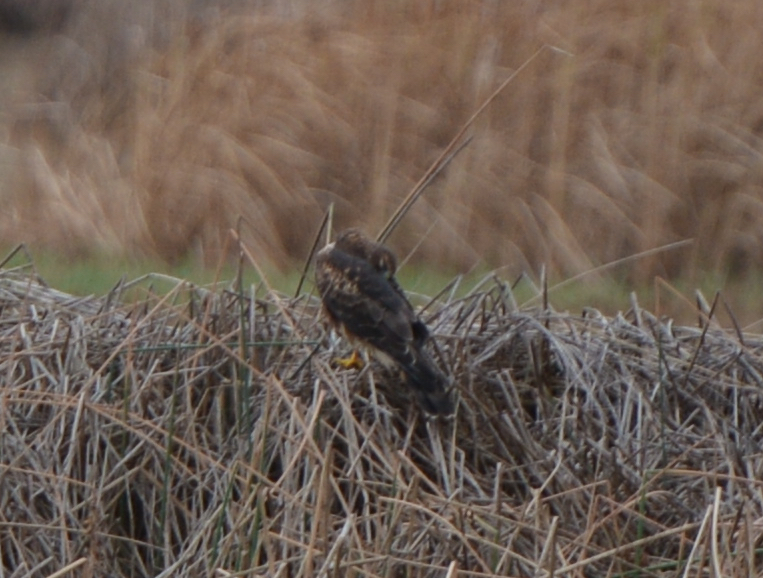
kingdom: Animalia
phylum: Chordata
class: Aves
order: Accipitriformes
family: Accipitridae
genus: Circus
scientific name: Circus cyaneus
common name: Hen harrier
